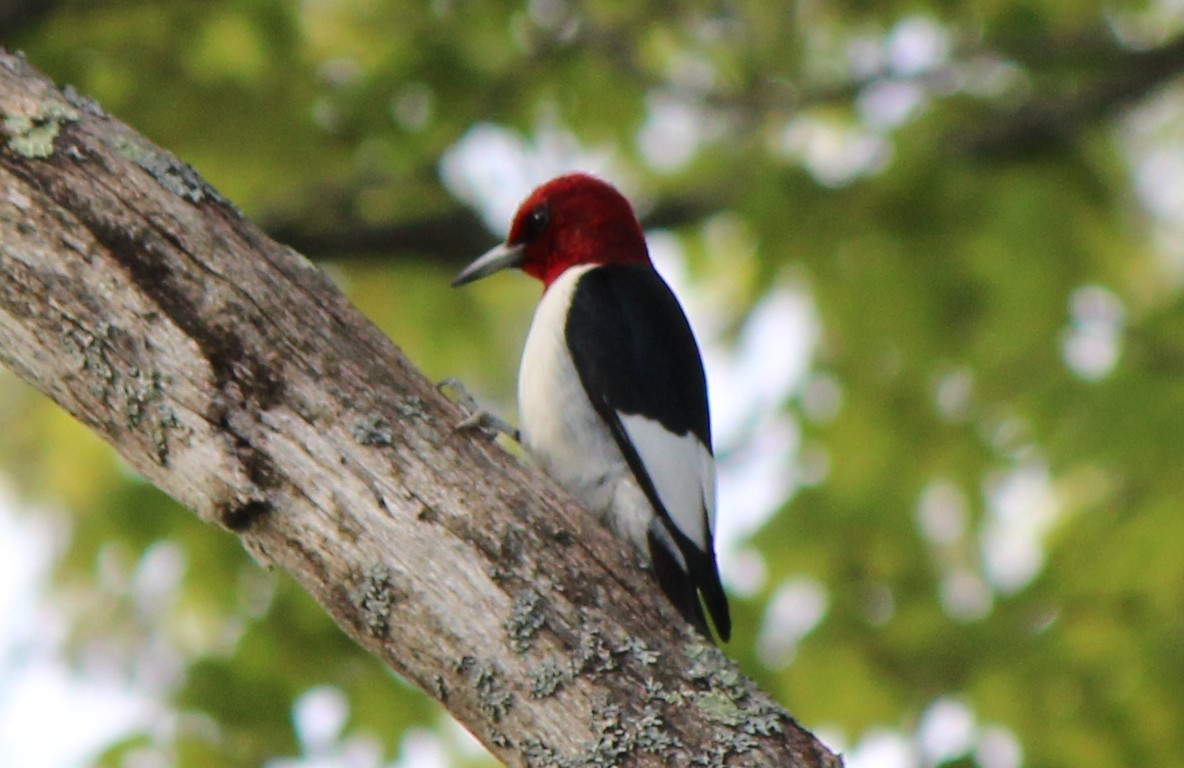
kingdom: Animalia
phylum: Chordata
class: Aves
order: Piciformes
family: Picidae
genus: Melanerpes
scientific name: Melanerpes erythrocephalus
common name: Red-headed woodpecker
